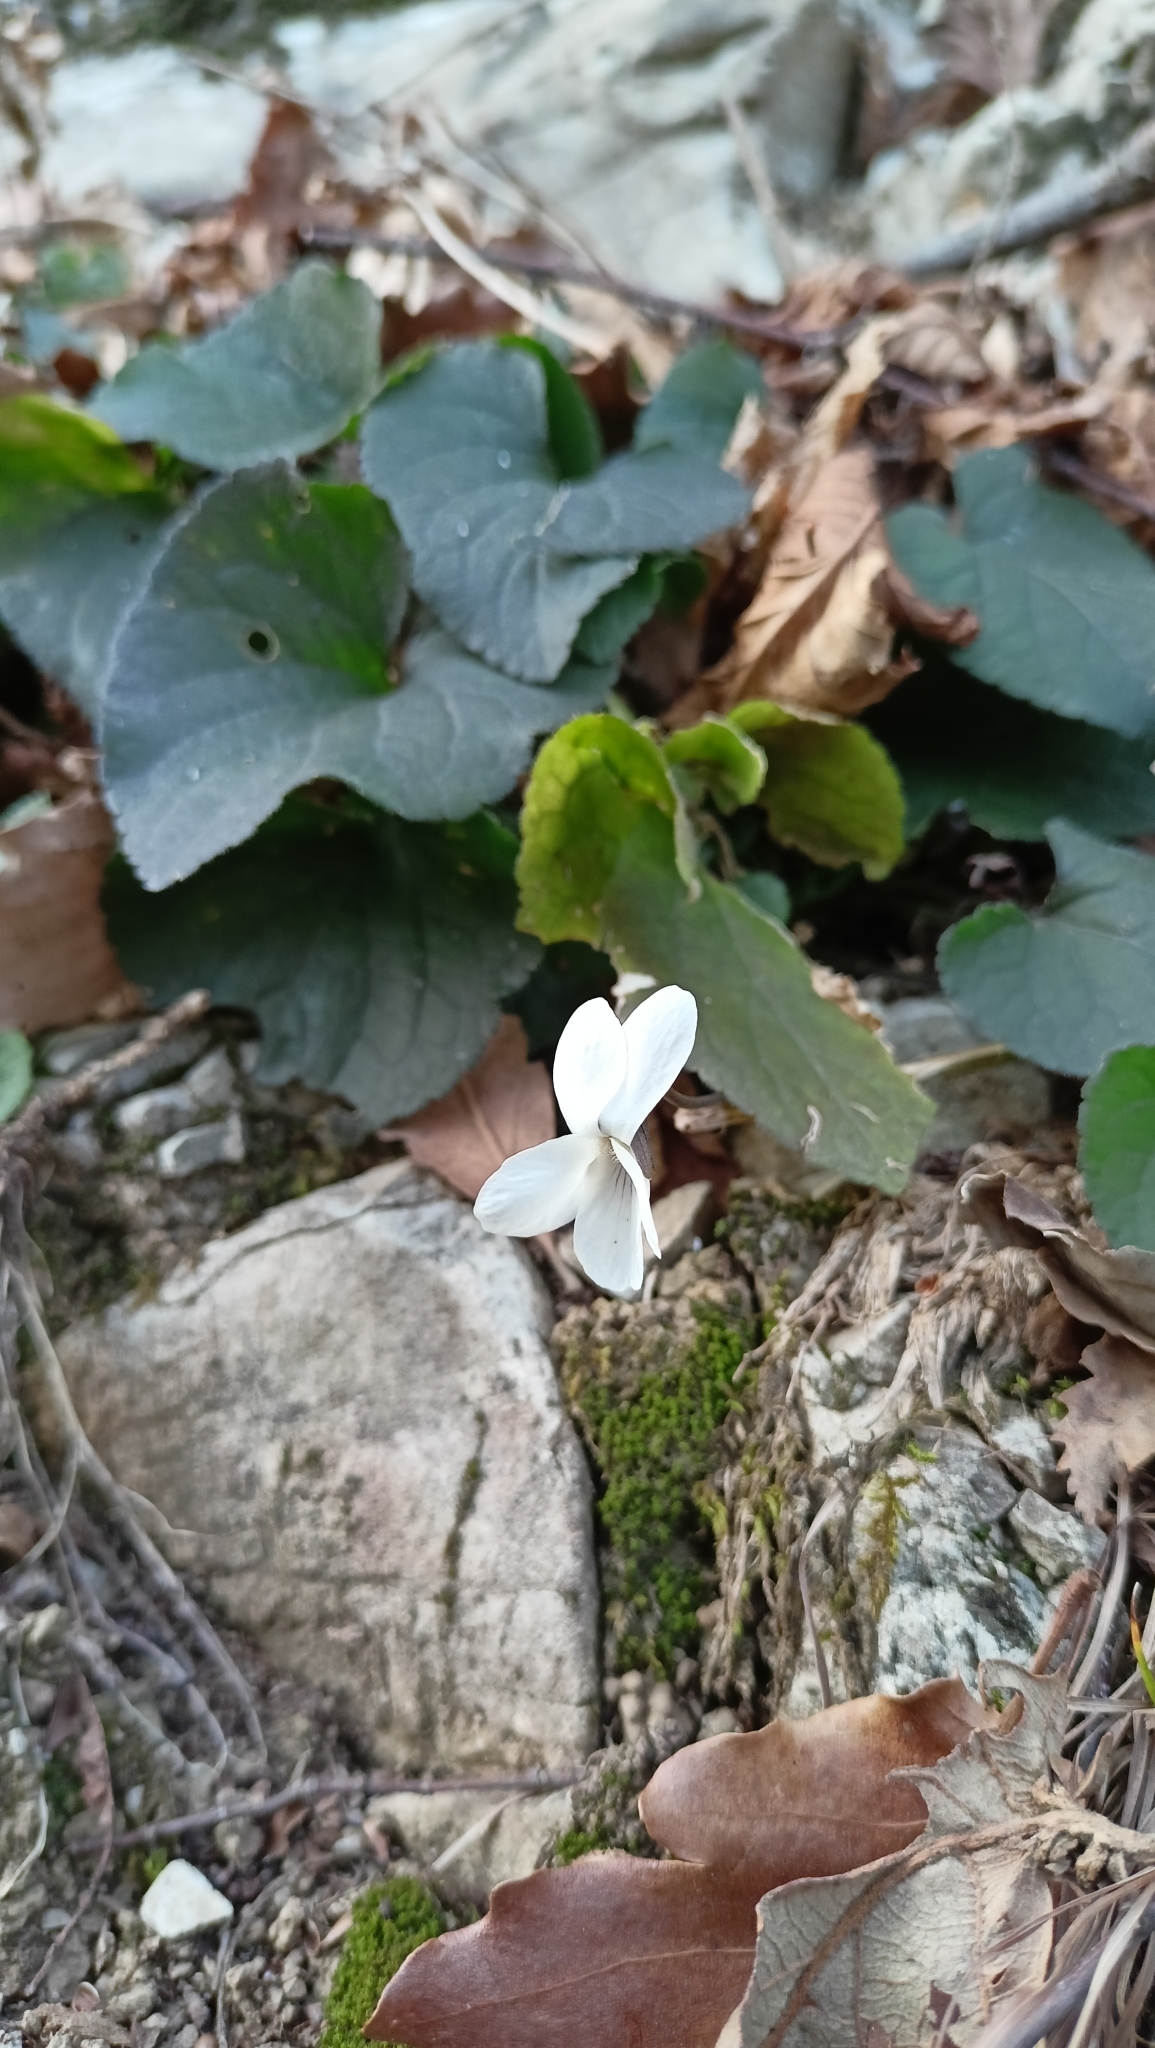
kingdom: Plantae
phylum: Tracheophyta
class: Magnoliopsida
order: Malpighiales
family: Violaceae
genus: Viola
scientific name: Viola alba
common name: White violet
